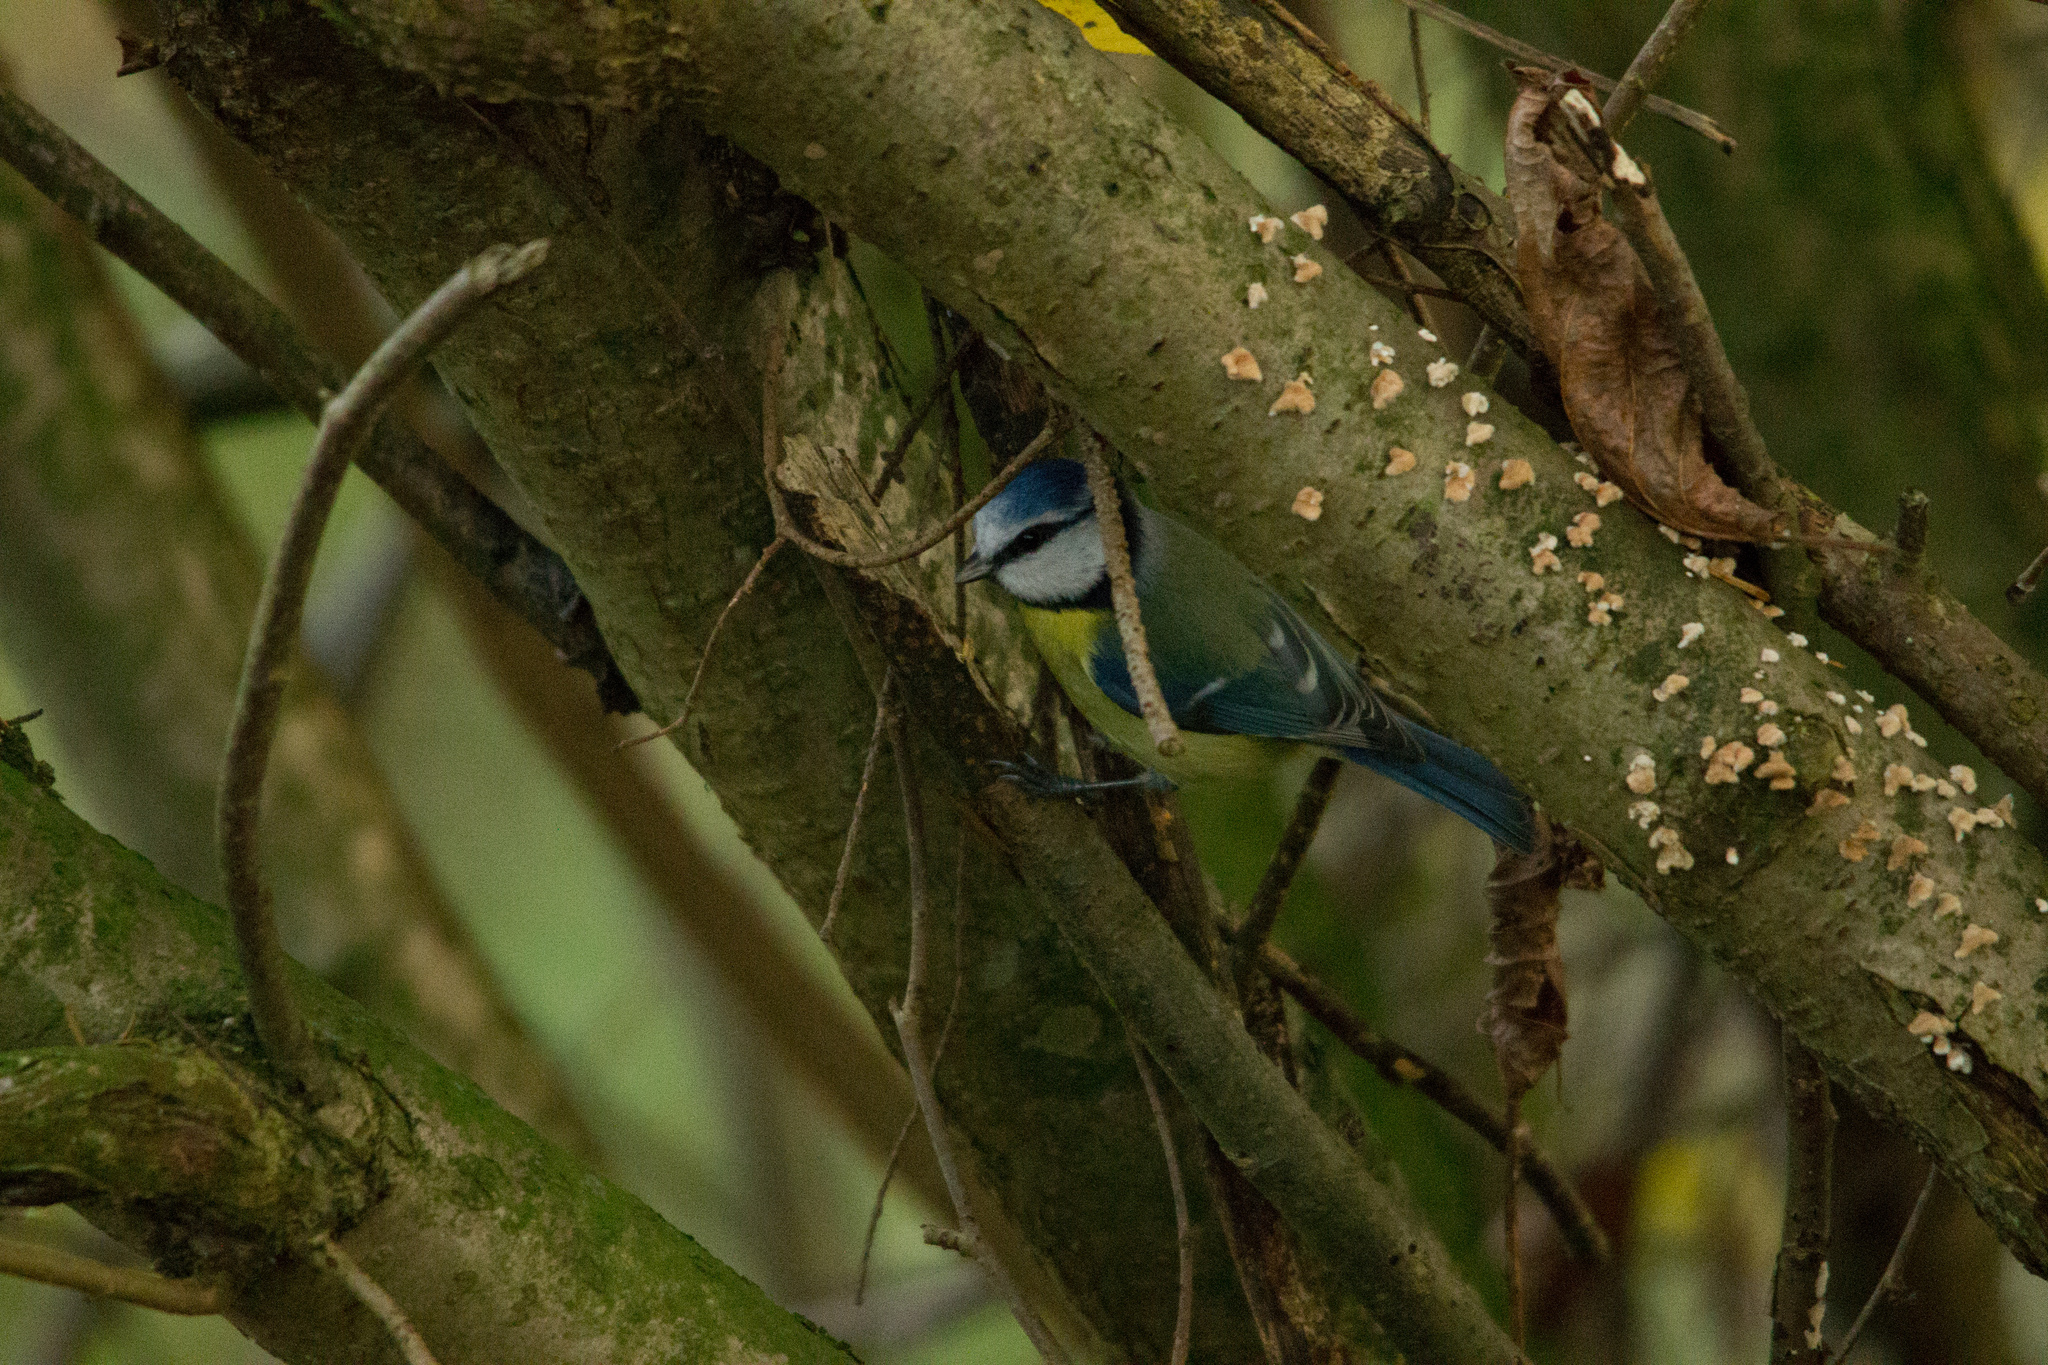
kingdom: Animalia
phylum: Chordata
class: Aves
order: Passeriformes
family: Paridae
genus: Cyanistes
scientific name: Cyanistes caeruleus
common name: Eurasian blue tit
